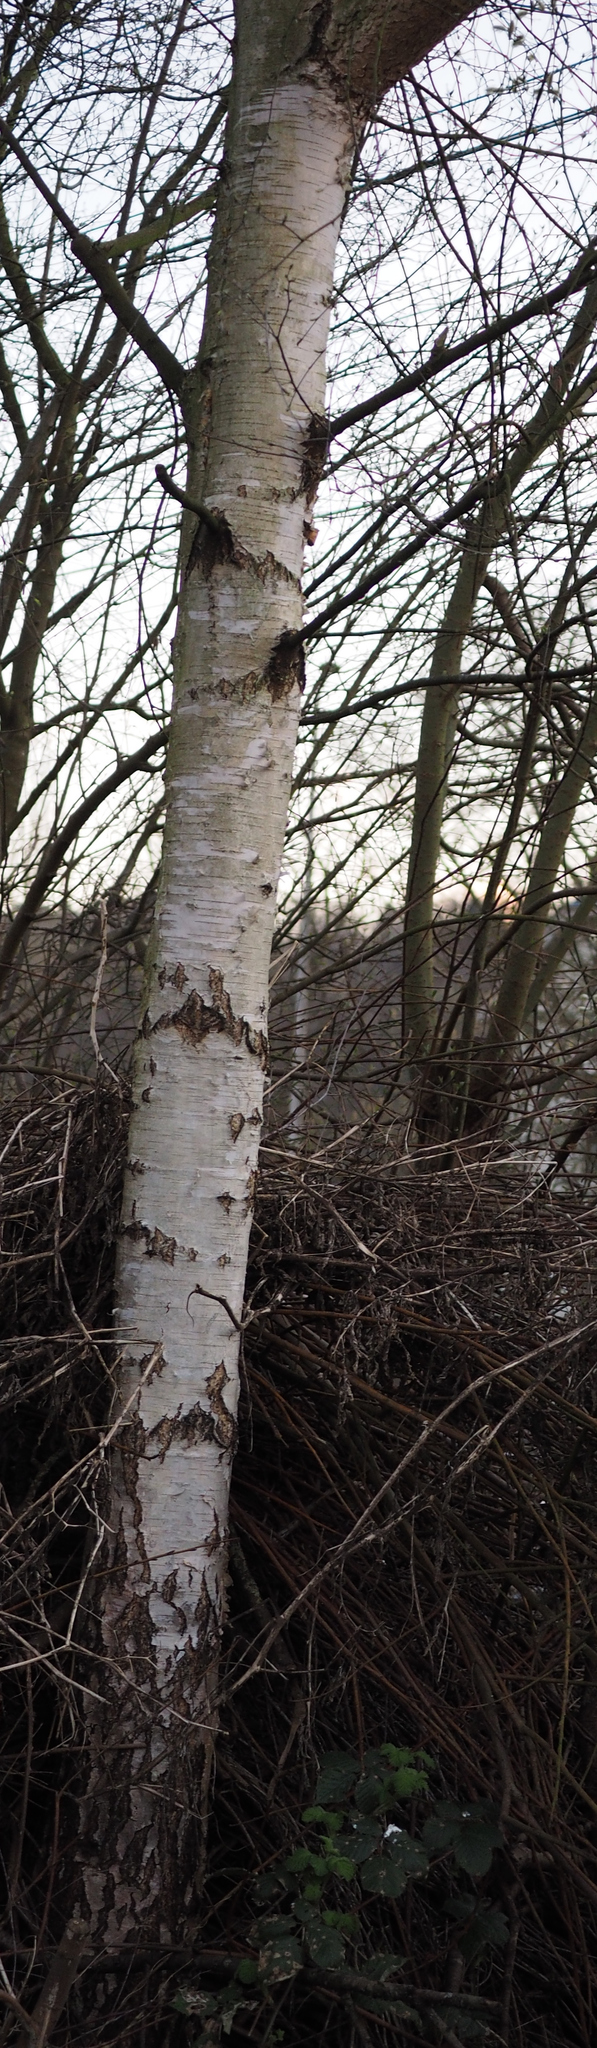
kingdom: Plantae
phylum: Tracheophyta
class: Magnoliopsida
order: Fagales
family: Betulaceae
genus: Betula
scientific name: Betula pendula
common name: Silver birch
